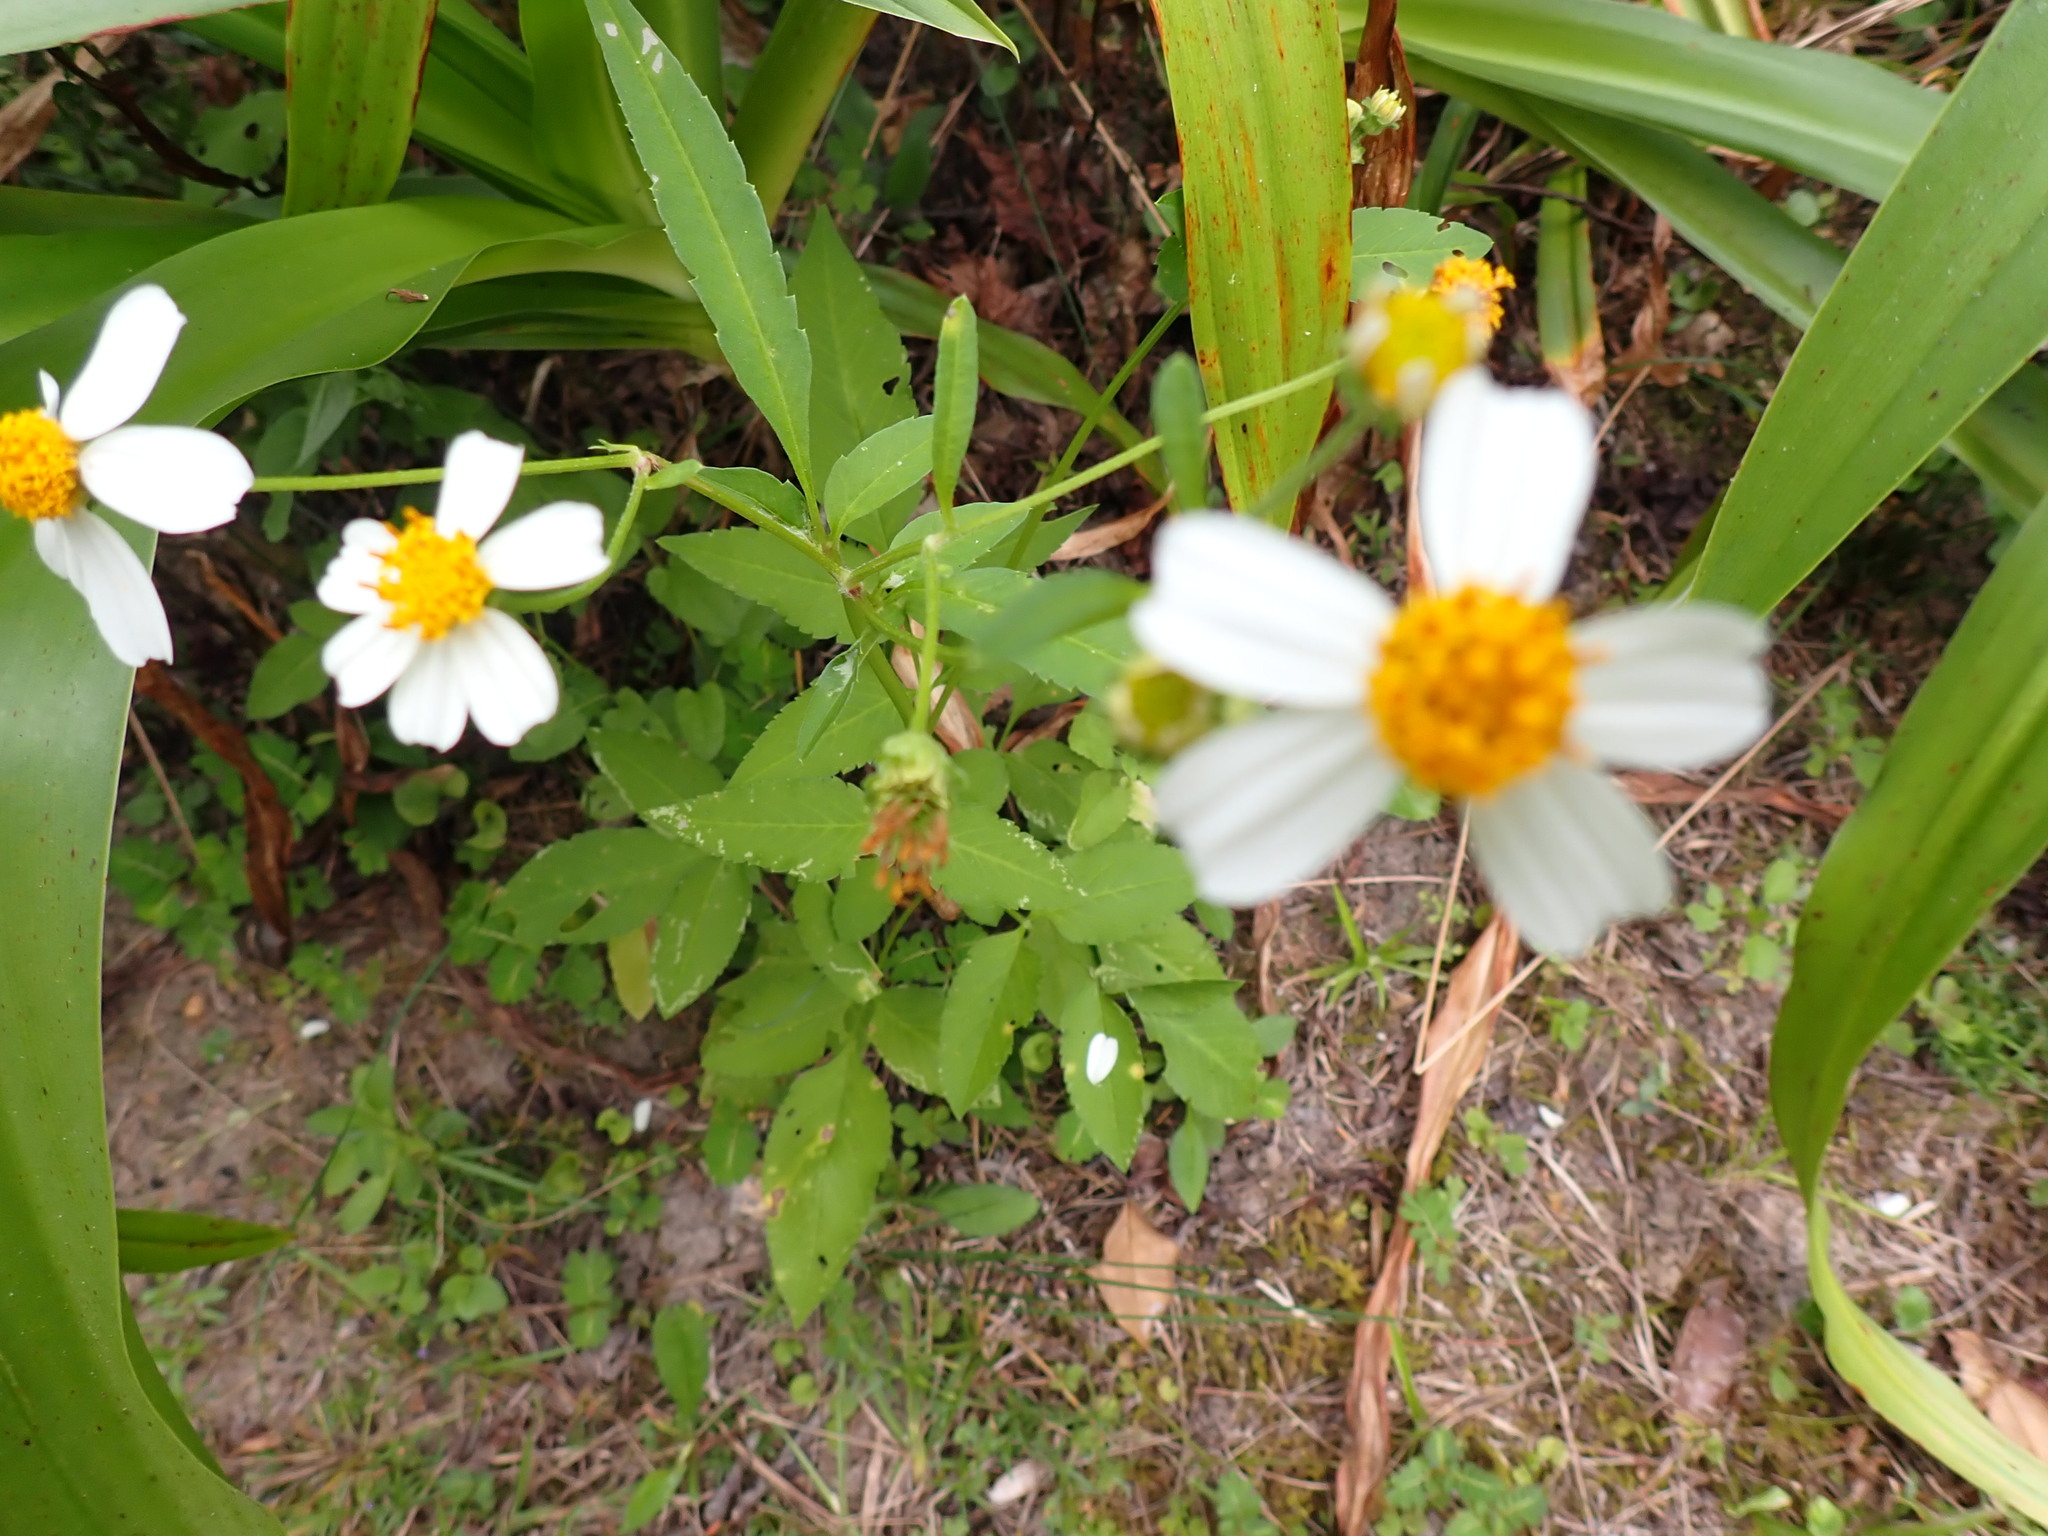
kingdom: Plantae
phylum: Tracheophyta
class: Magnoliopsida
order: Asterales
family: Asteraceae
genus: Bidens
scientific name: Bidens alba
